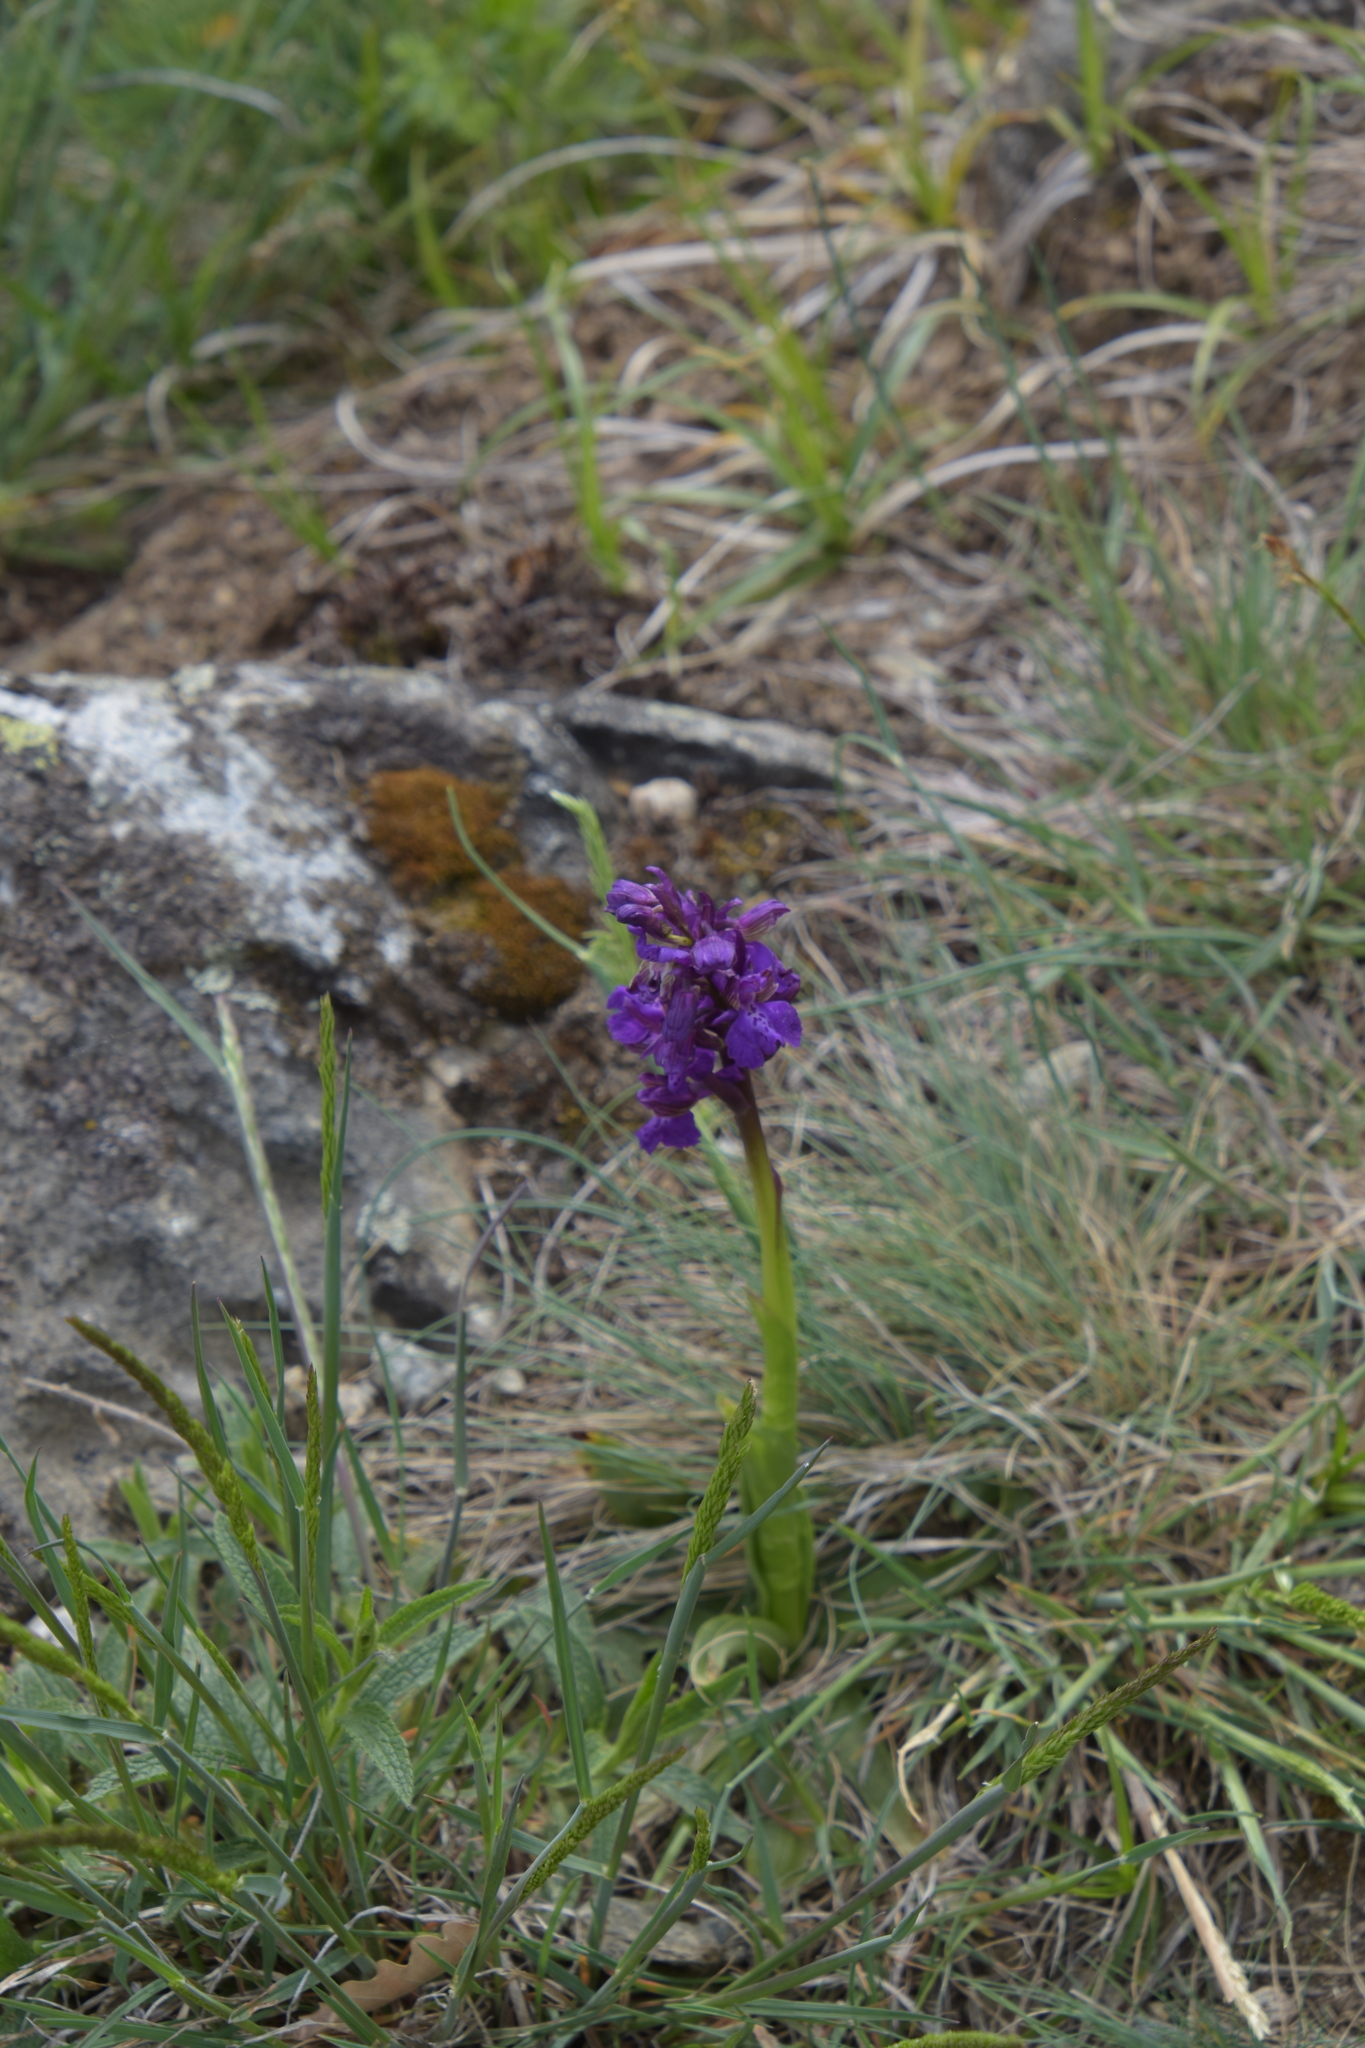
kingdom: Plantae
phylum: Tracheophyta
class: Liliopsida
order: Asparagales
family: Orchidaceae
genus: Anacamptis
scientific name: Anacamptis morio
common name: Green-winged orchid
